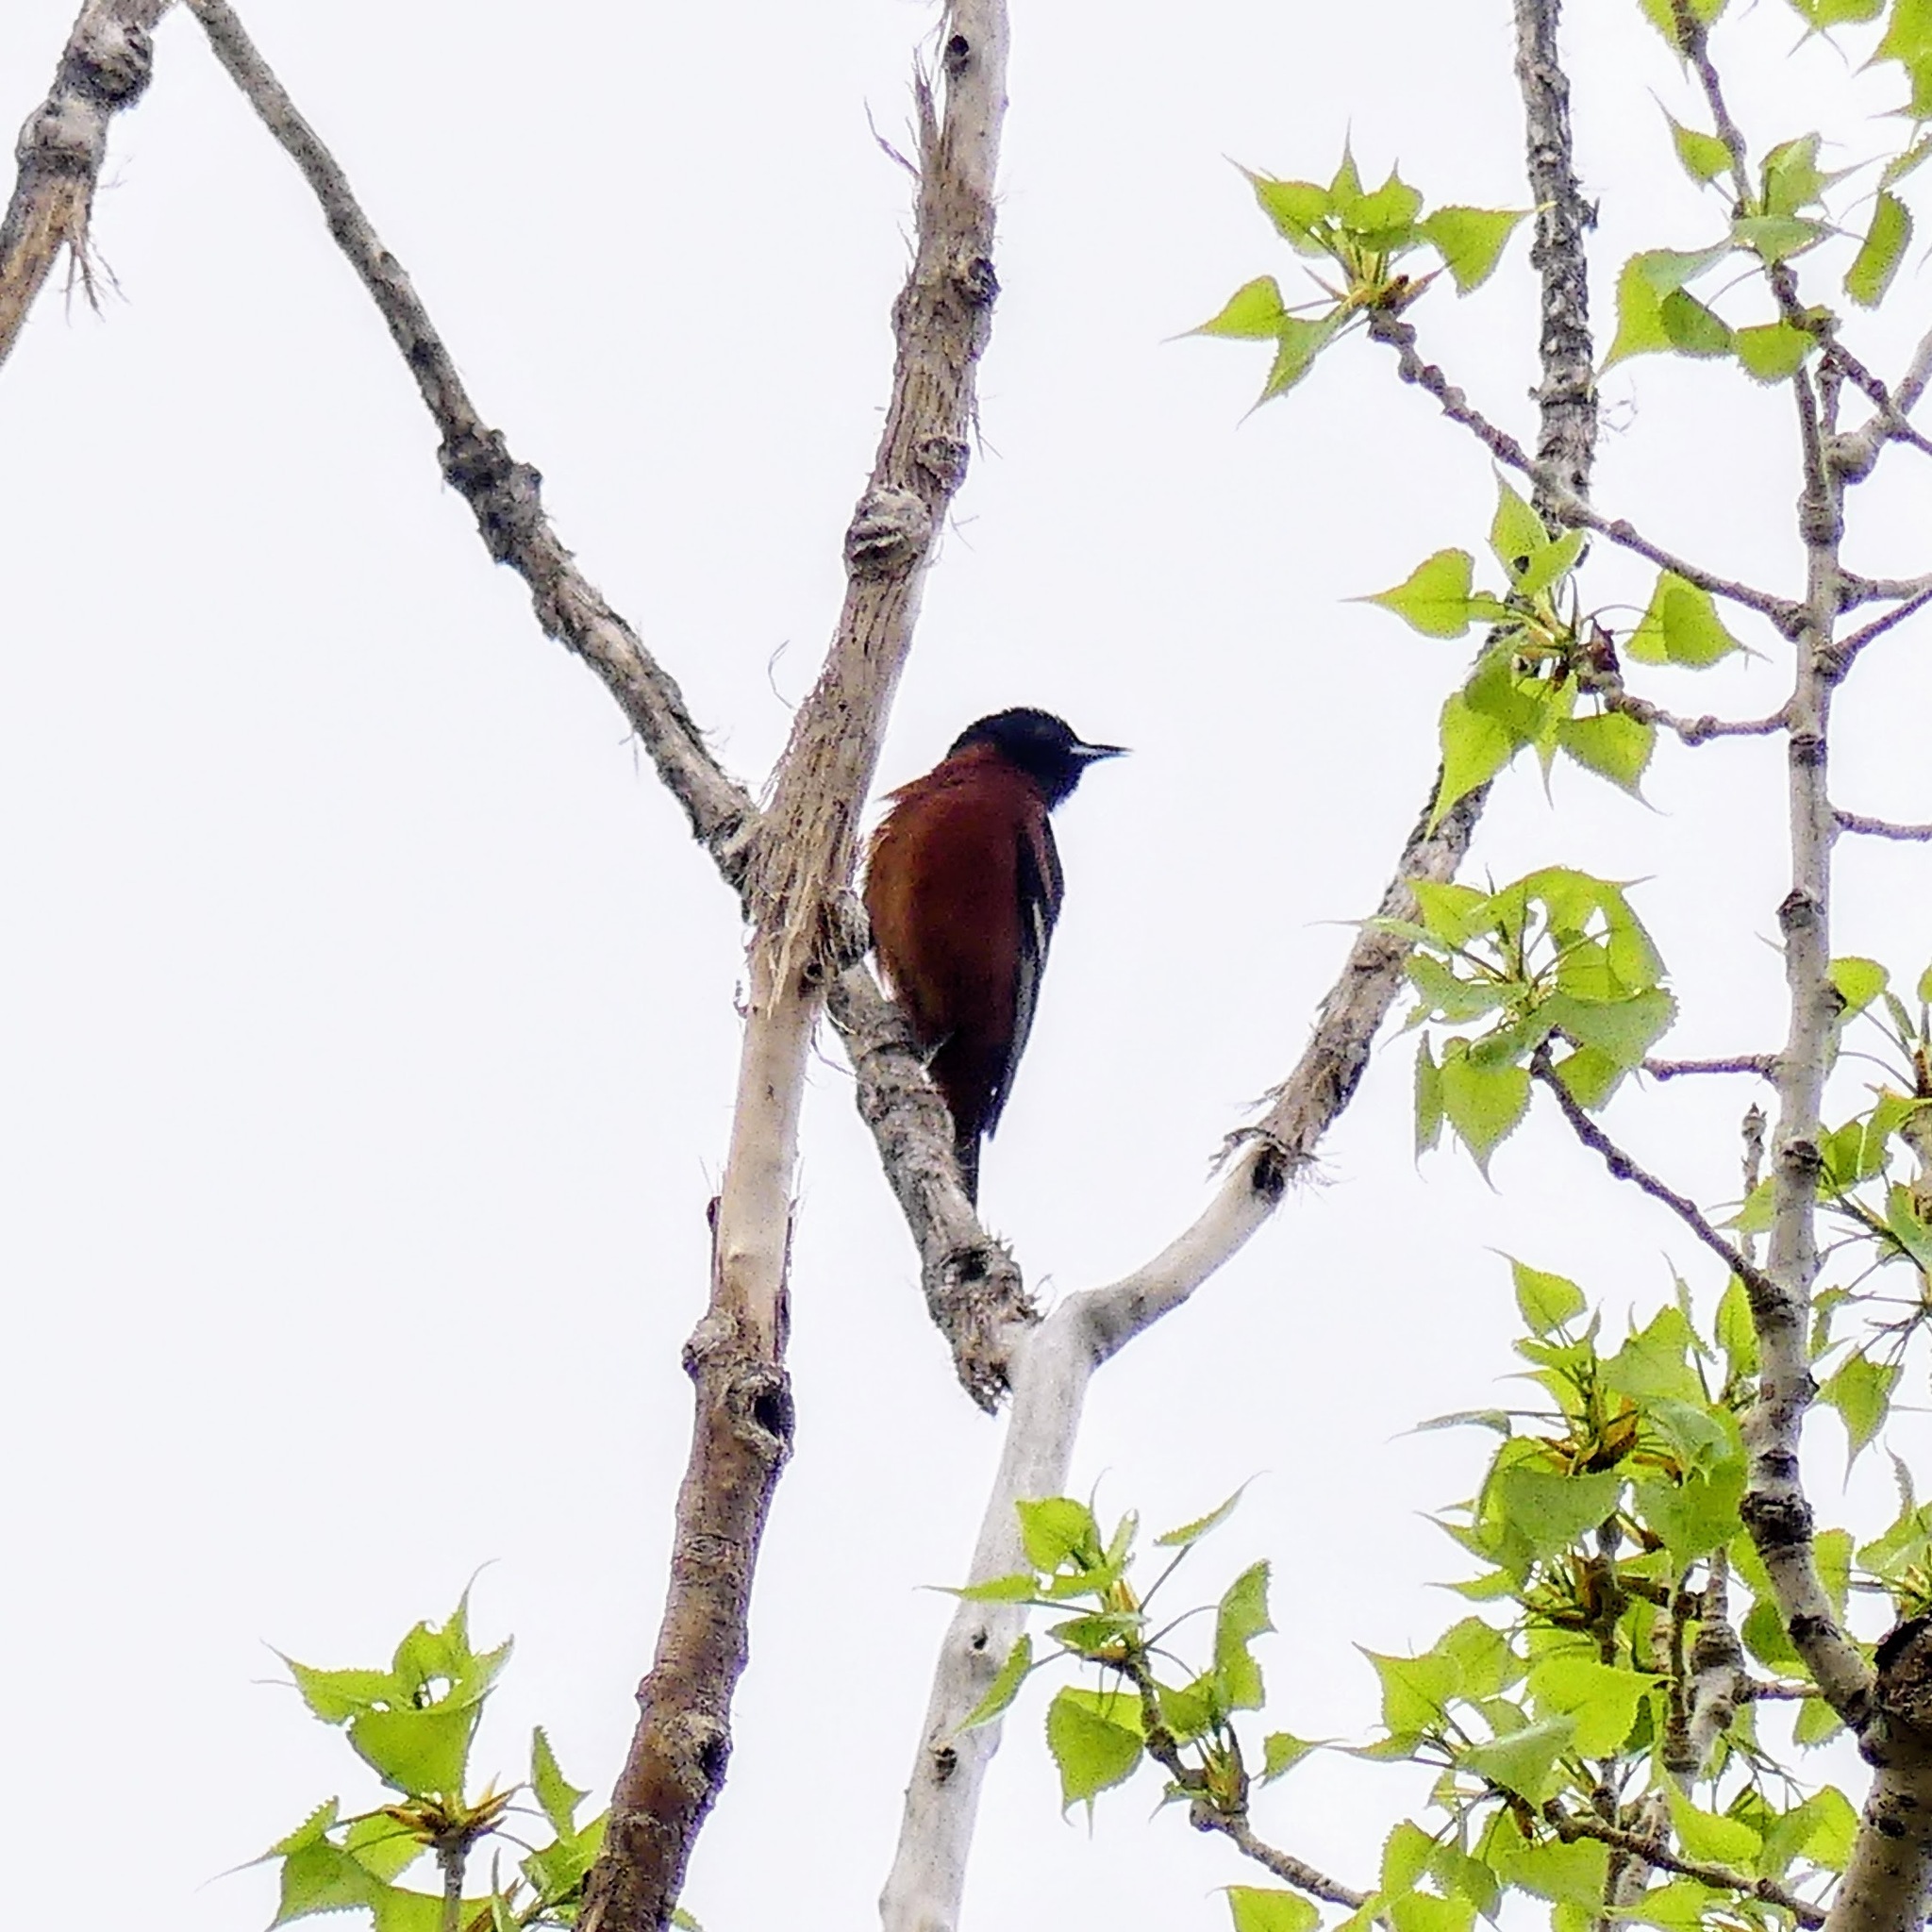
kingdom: Animalia
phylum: Chordata
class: Aves
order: Passeriformes
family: Icteridae
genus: Icterus
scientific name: Icterus spurius
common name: Orchard oriole
